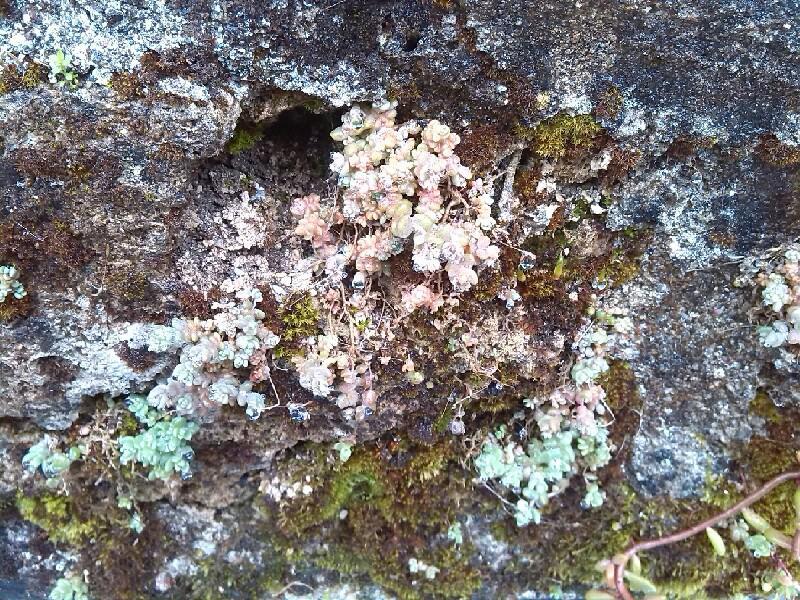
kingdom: Plantae
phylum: Tracheophyta
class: Magnoliopsida
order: Saxifragales
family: Crassulaceae
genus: Sedum
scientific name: Sedum dasyphyllum
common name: Thick-leaf stonecrop
